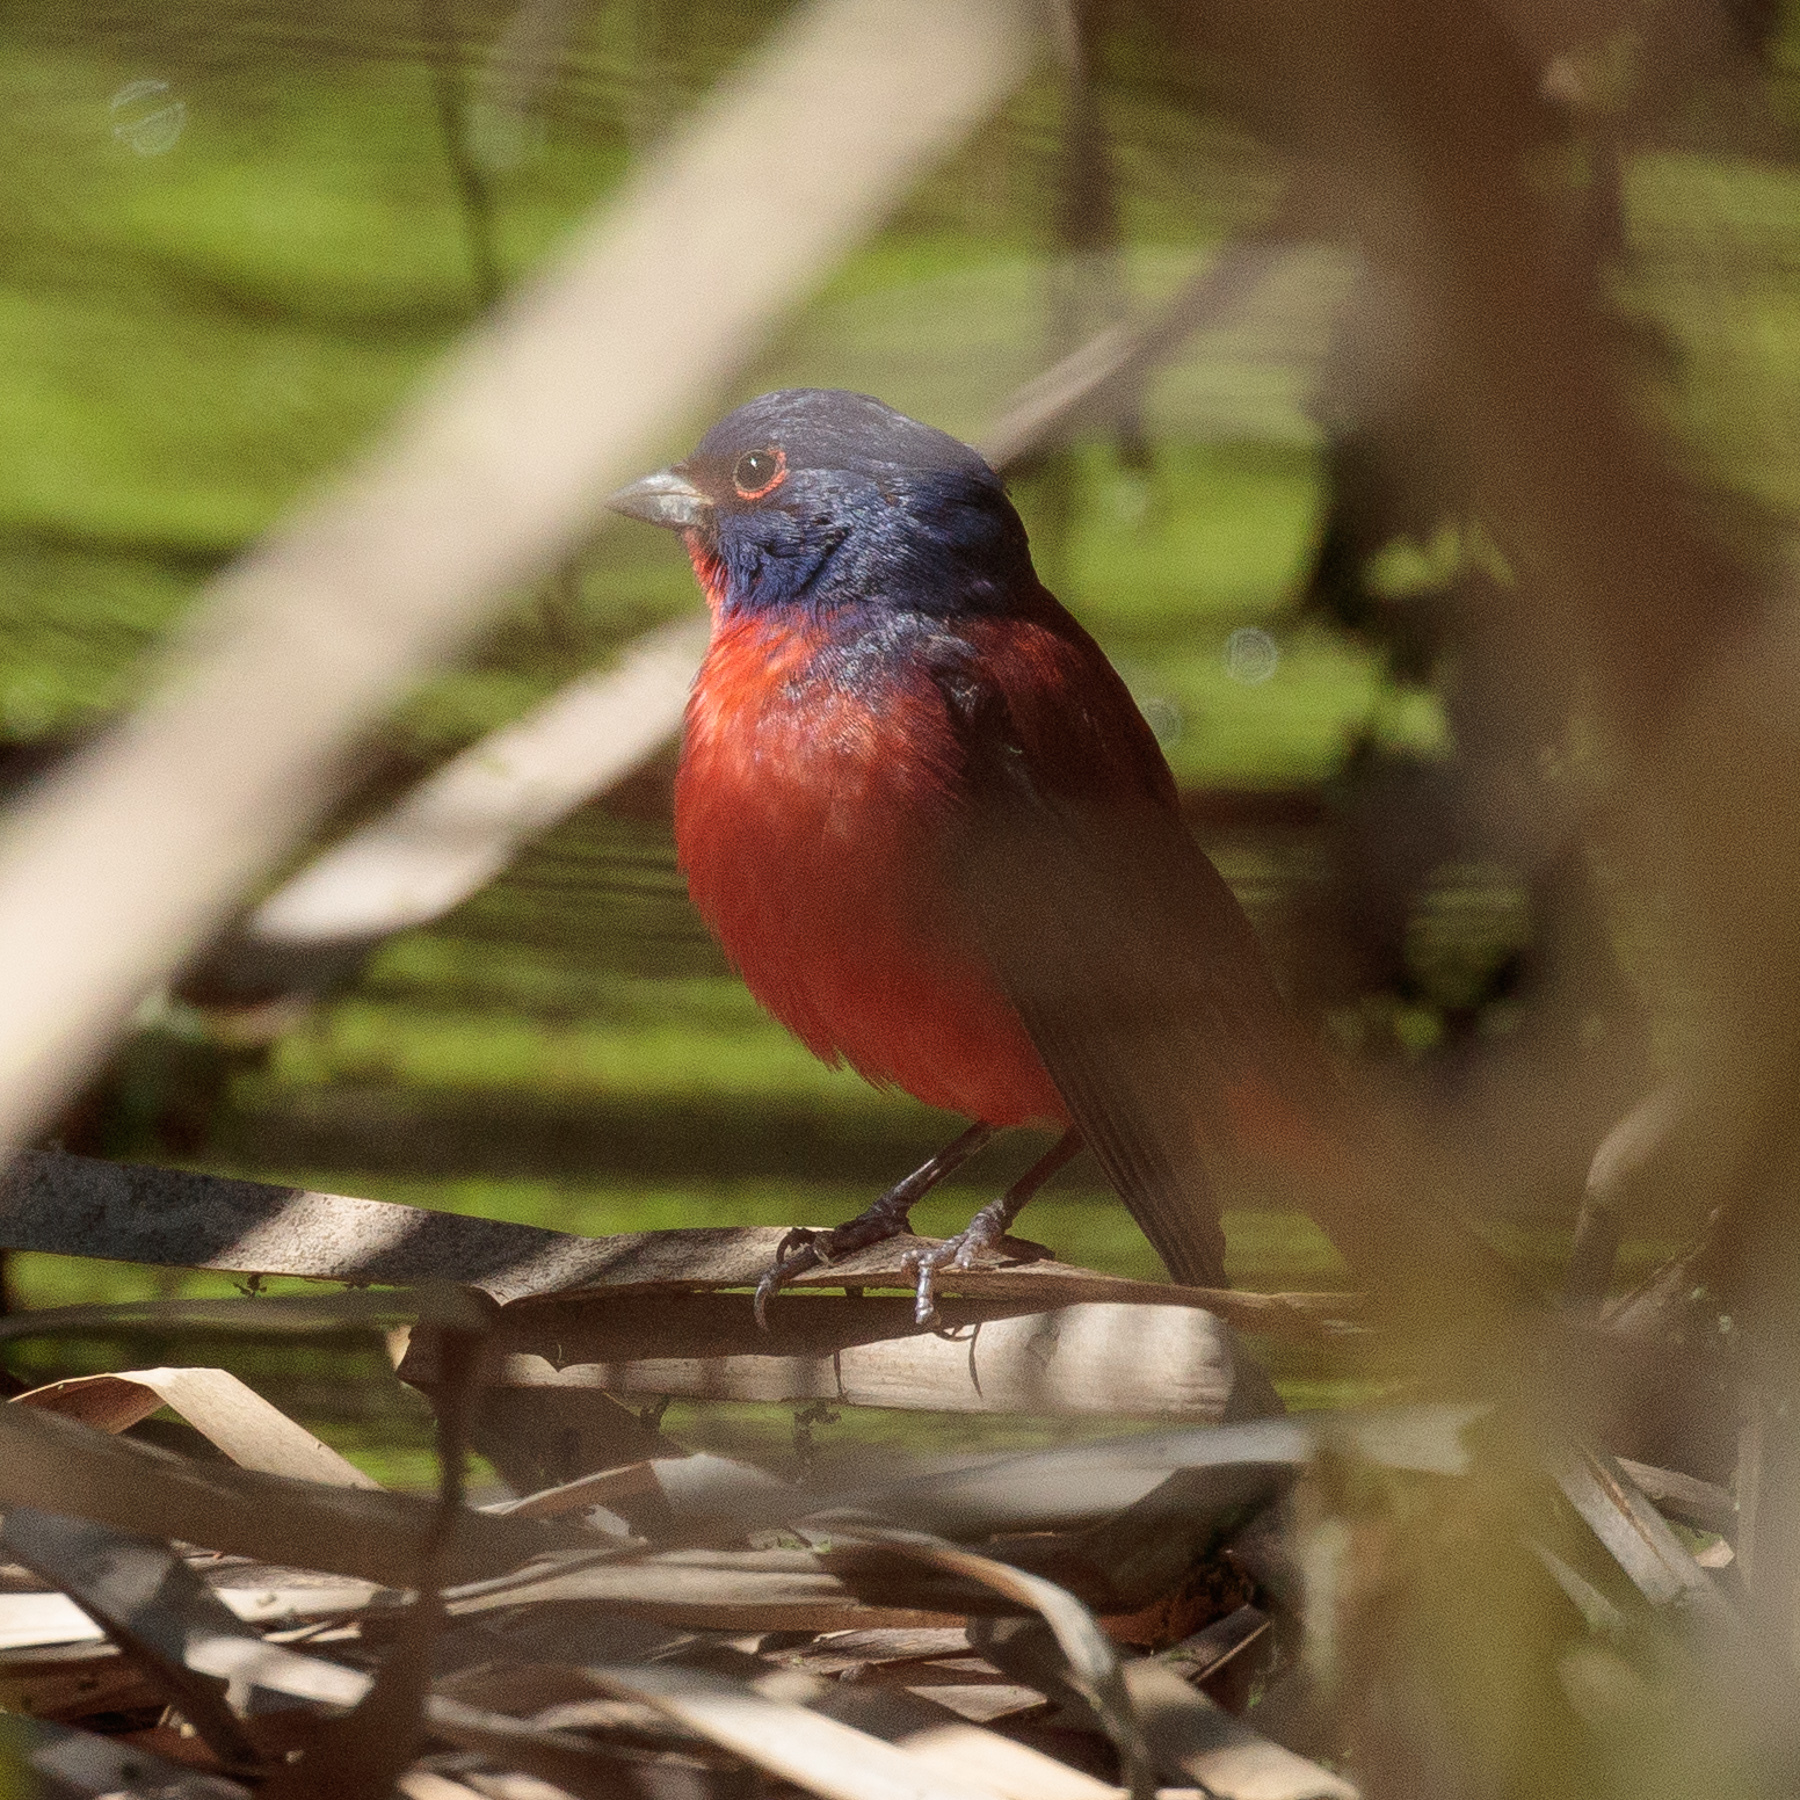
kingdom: Animalia
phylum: Chordata
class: Aves
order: Passeriformes
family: Cardinalidae
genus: Passerina
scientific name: Passerina ciris
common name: Painted bunting
